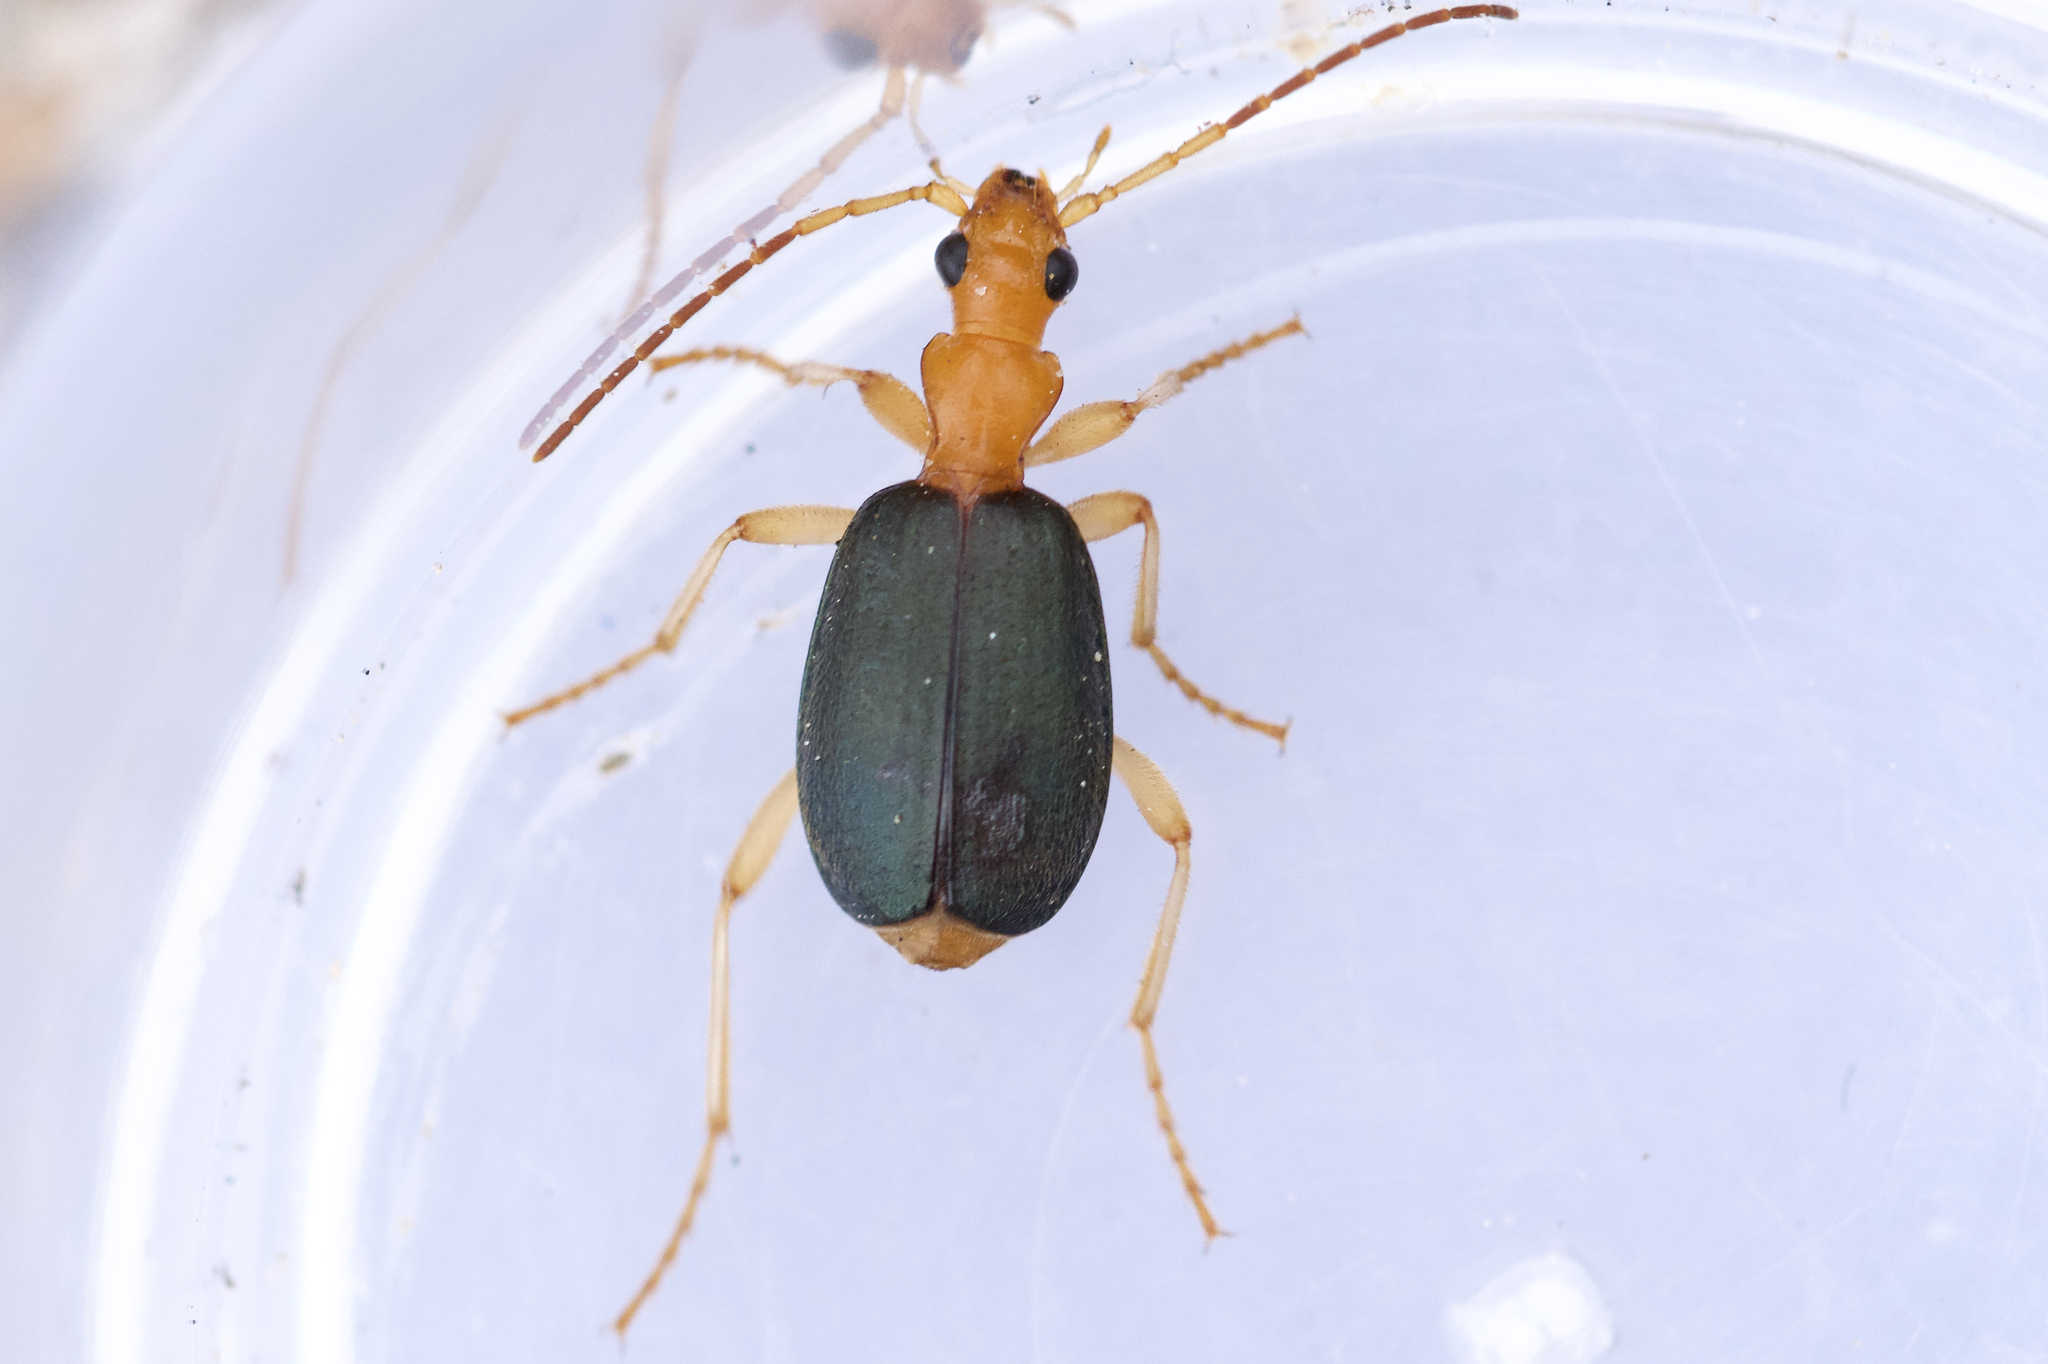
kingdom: Animalia
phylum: Arthropoda
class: Insecta
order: Coleoptera
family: Carabidae
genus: Brachinus
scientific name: Brachinus janthinipennis
